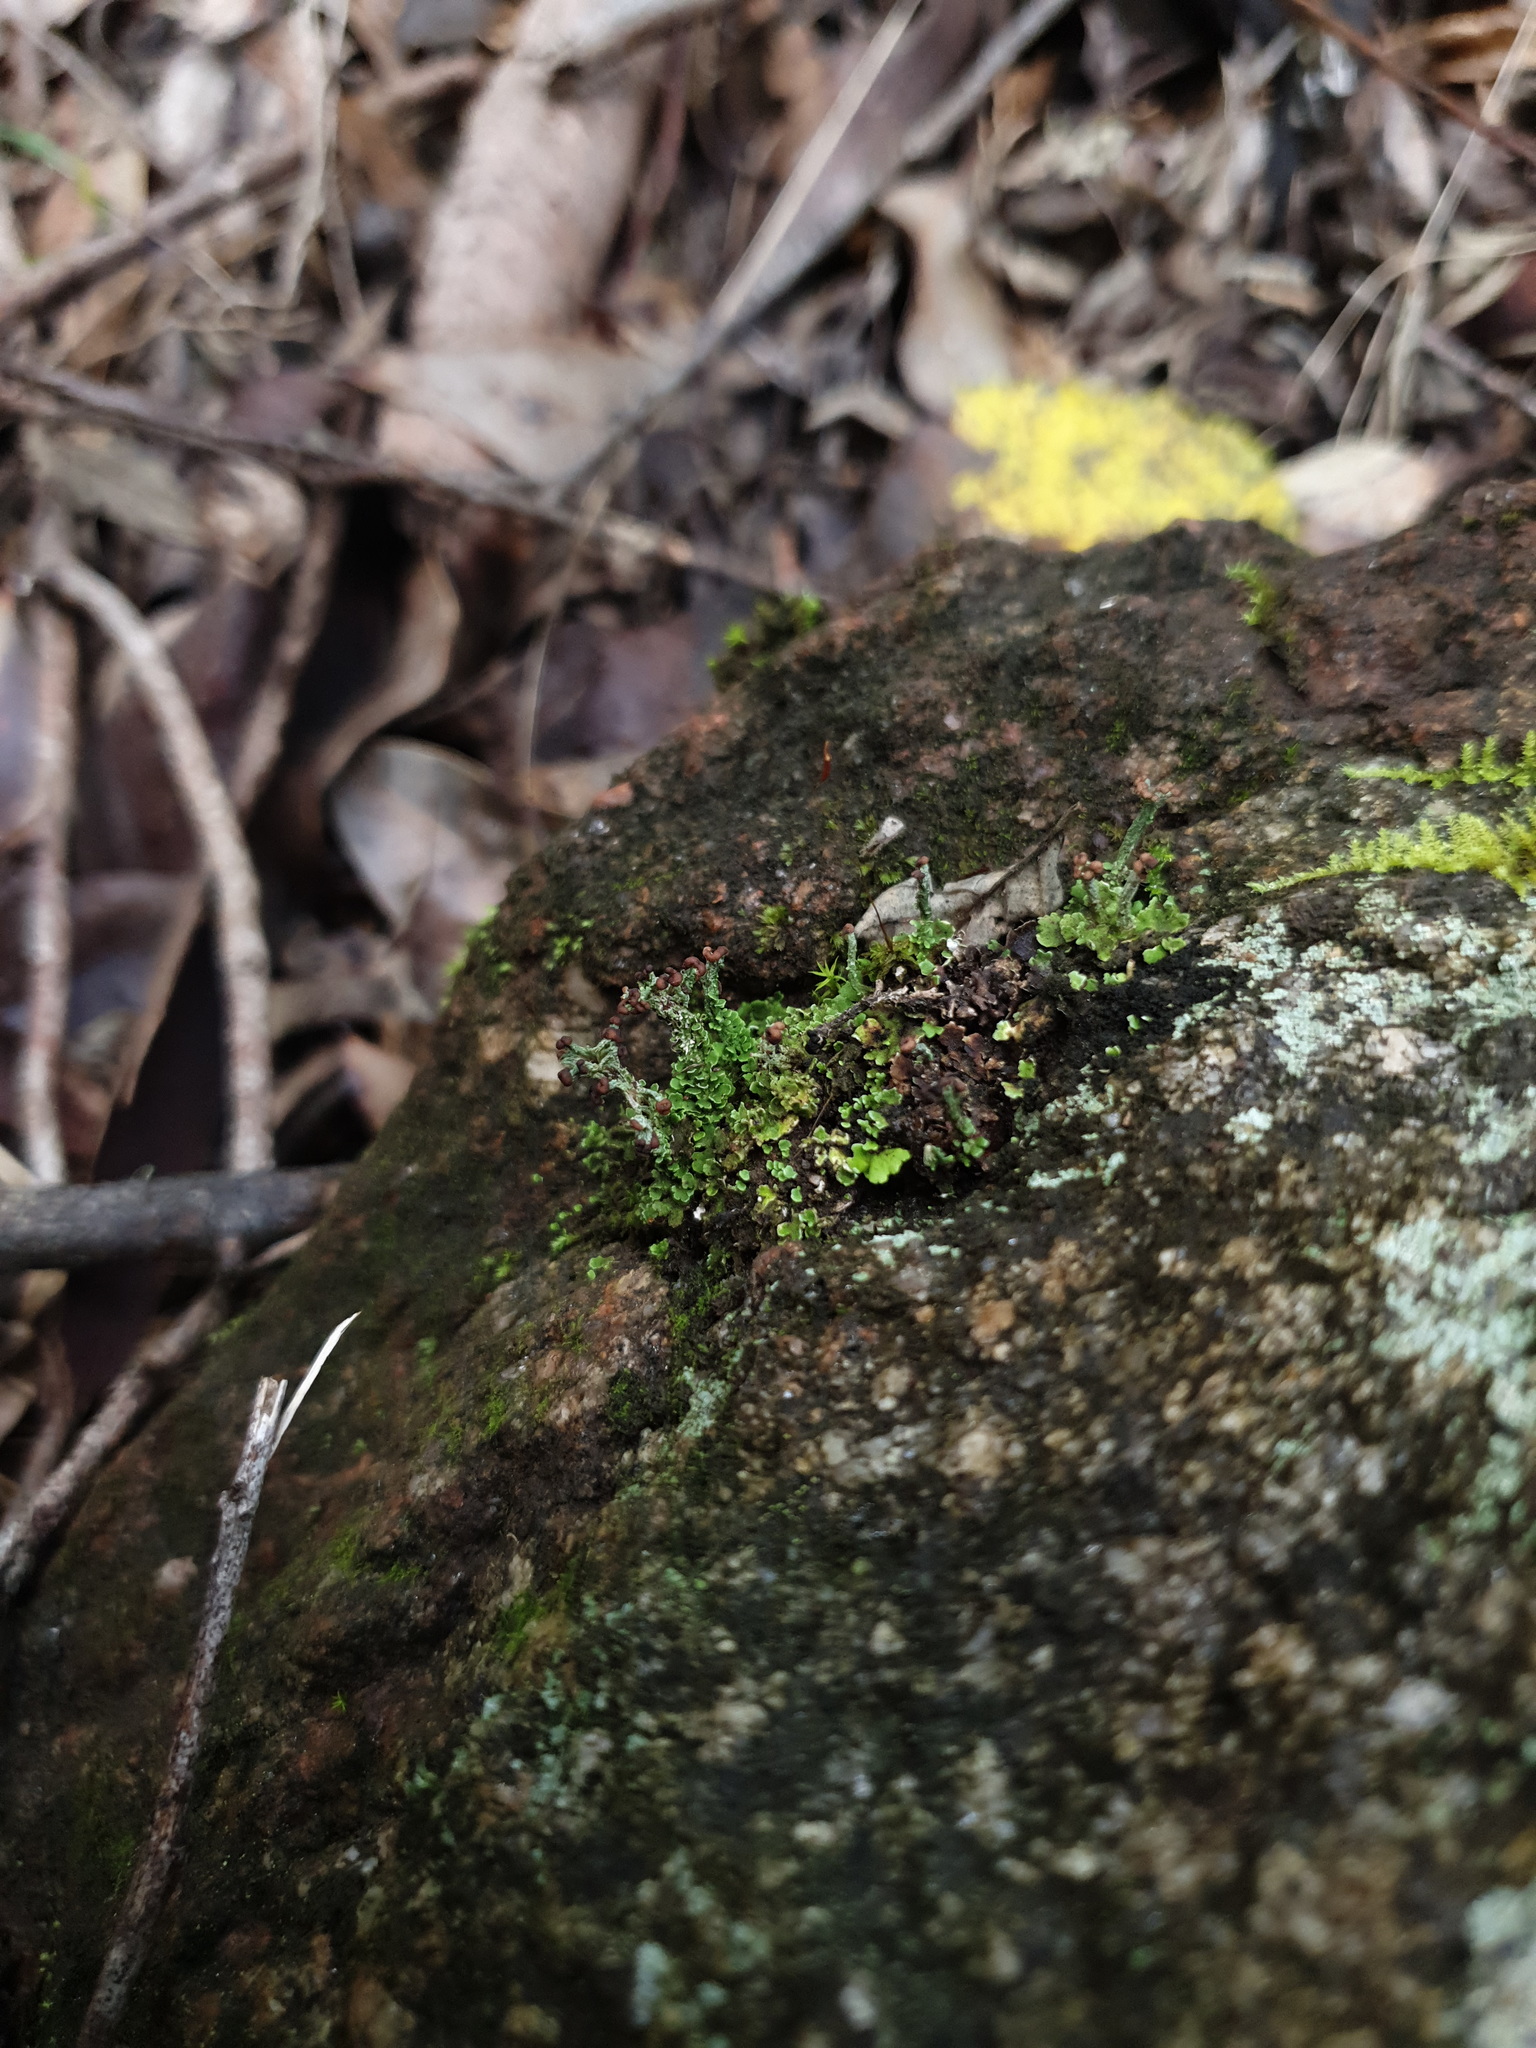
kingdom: Fungi
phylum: Ascomycota
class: Lecanoromycetes
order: Lecanorales
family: Cladoniaceae
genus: Cladonia
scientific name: Cladonia cariosa
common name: Split-peg lichen
